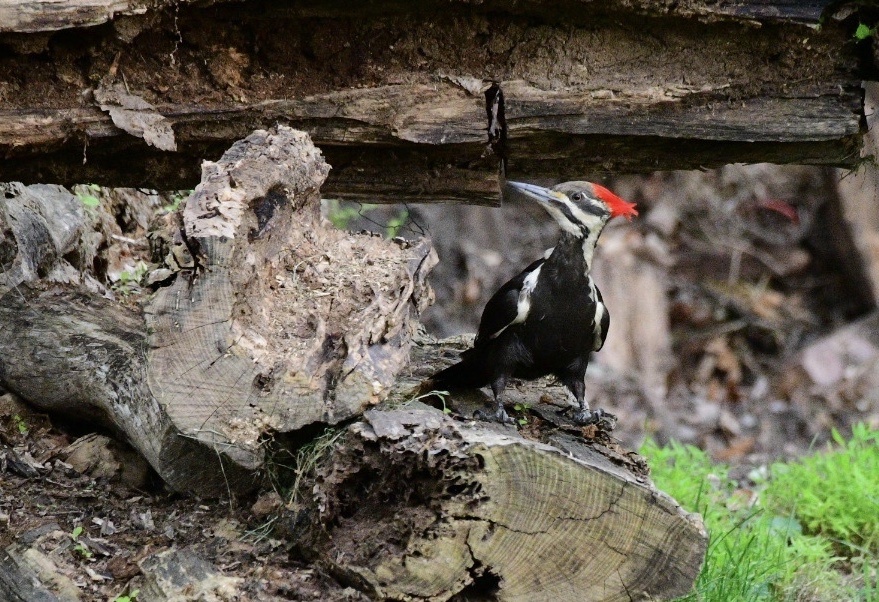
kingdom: Animalia
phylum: Chordata
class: Aves
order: Piciformes
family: Picidae
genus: Dryocopus
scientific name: Dryocopus pileatus
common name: Pileated woodpecker
